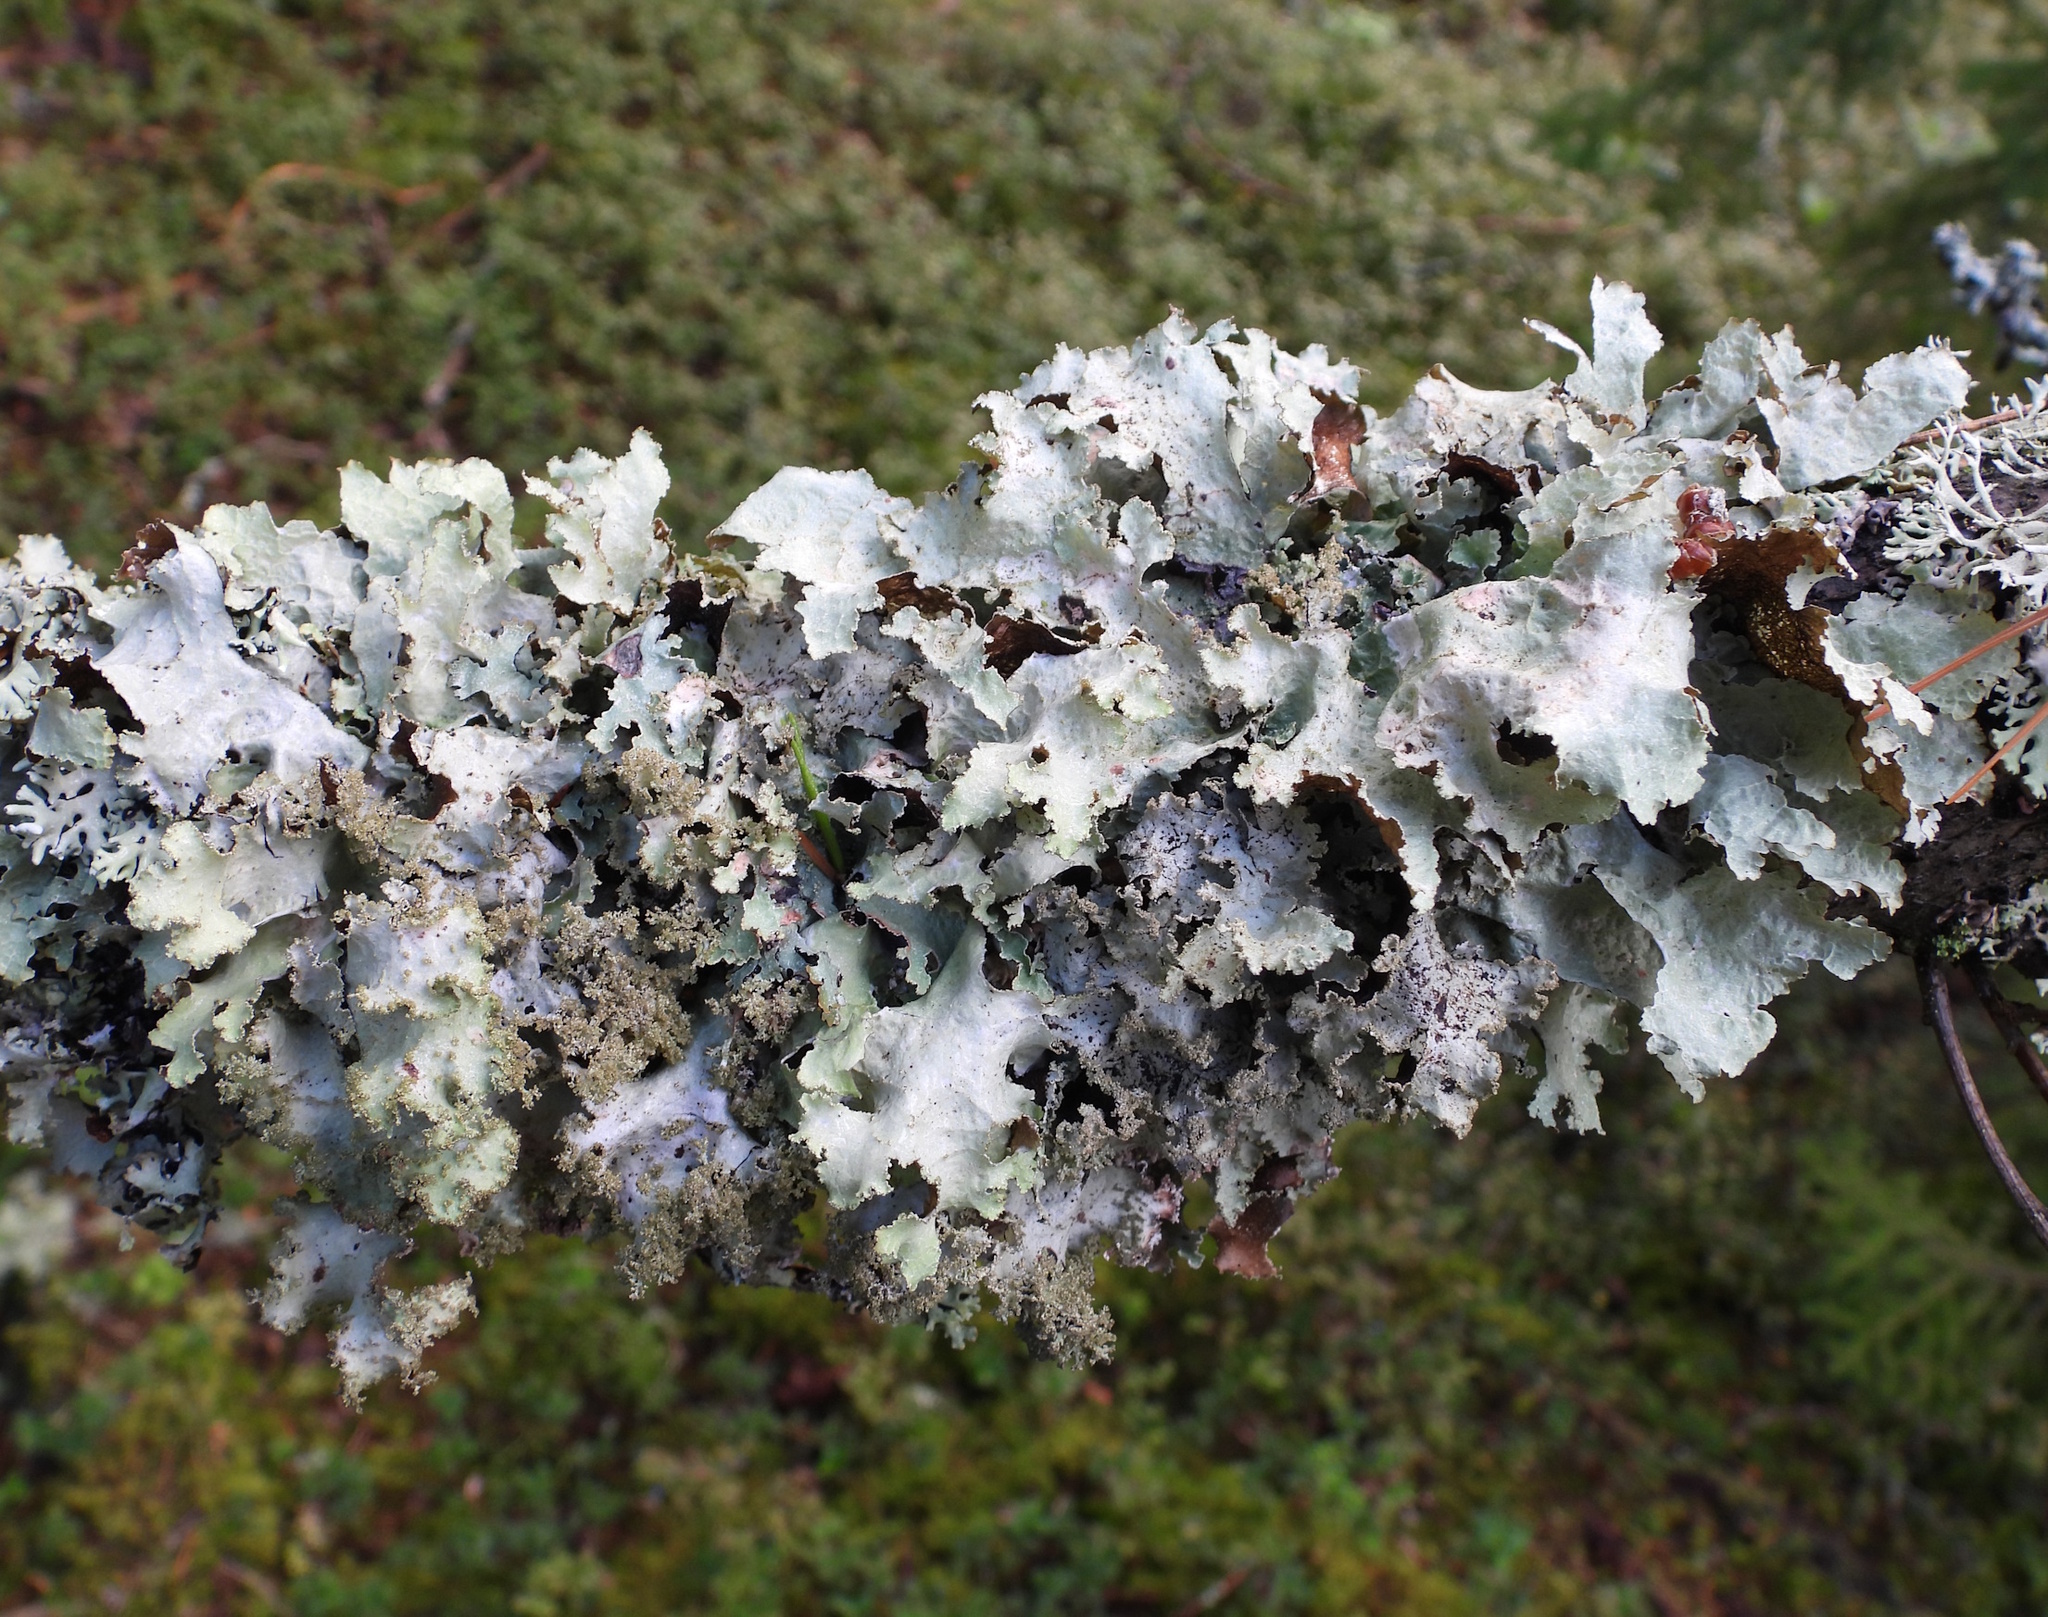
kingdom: Fungi
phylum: Ascomycota
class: Lecanoromycetes
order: Lecanorales
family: Parmeliaceae
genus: Platismatia
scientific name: Platismatia glauca
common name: Varied rag lichen
